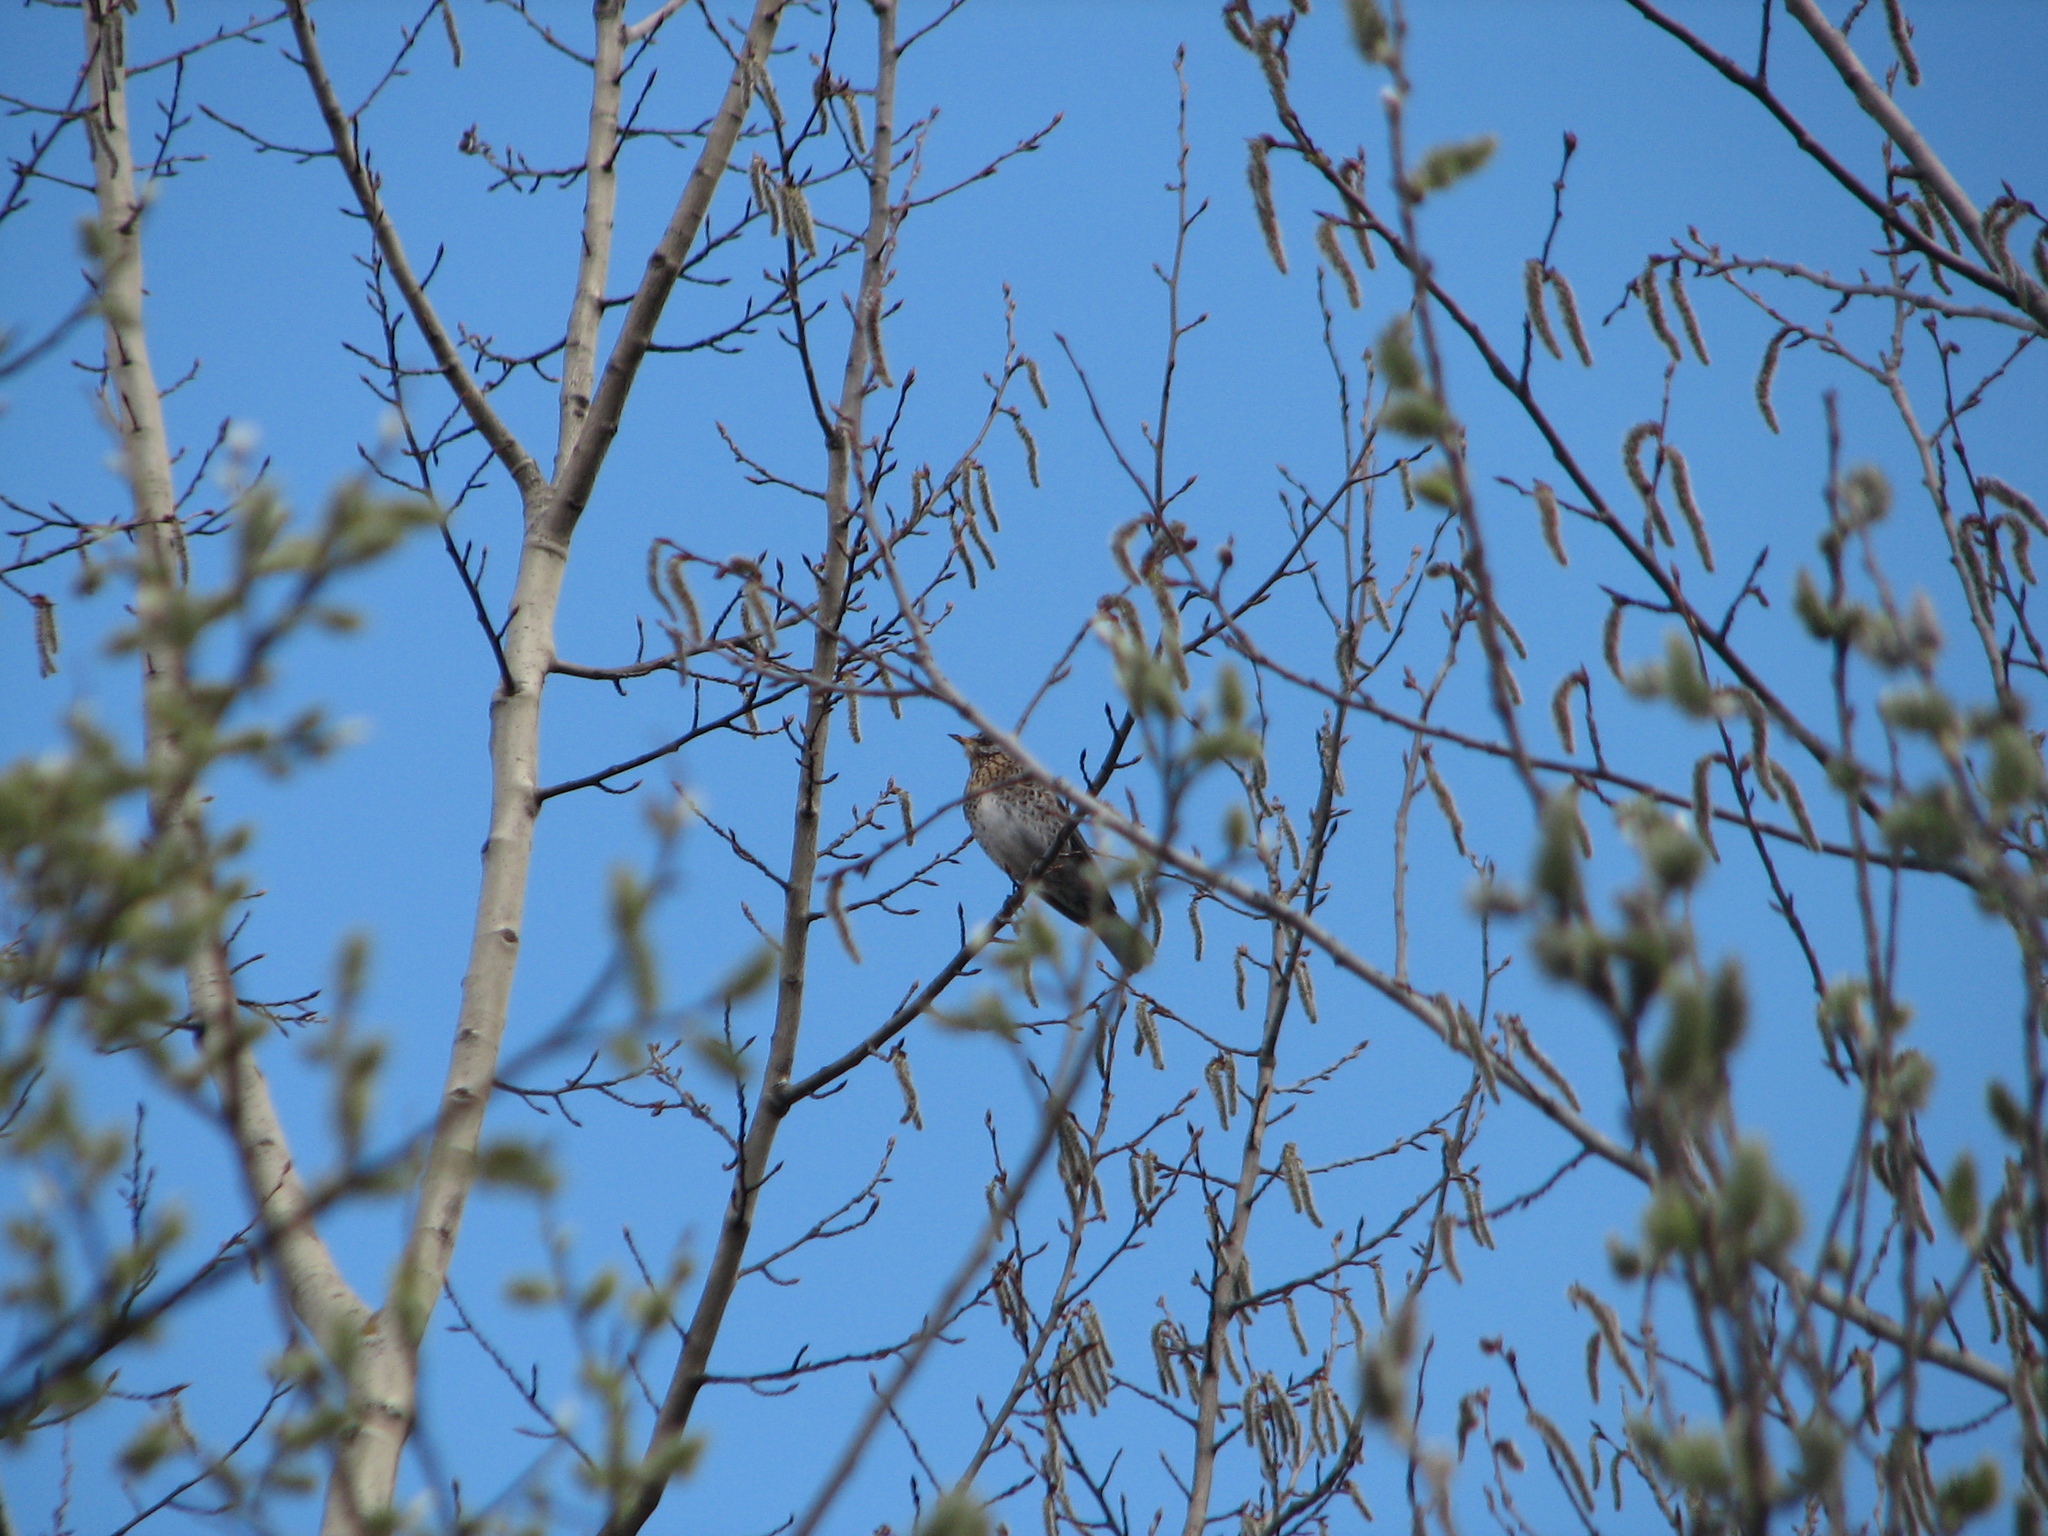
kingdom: Animalia
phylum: Chordata
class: Aves
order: Passeriformes
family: Turdidae
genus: Turdus
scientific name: Turdus pilaris
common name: Fieldfare
